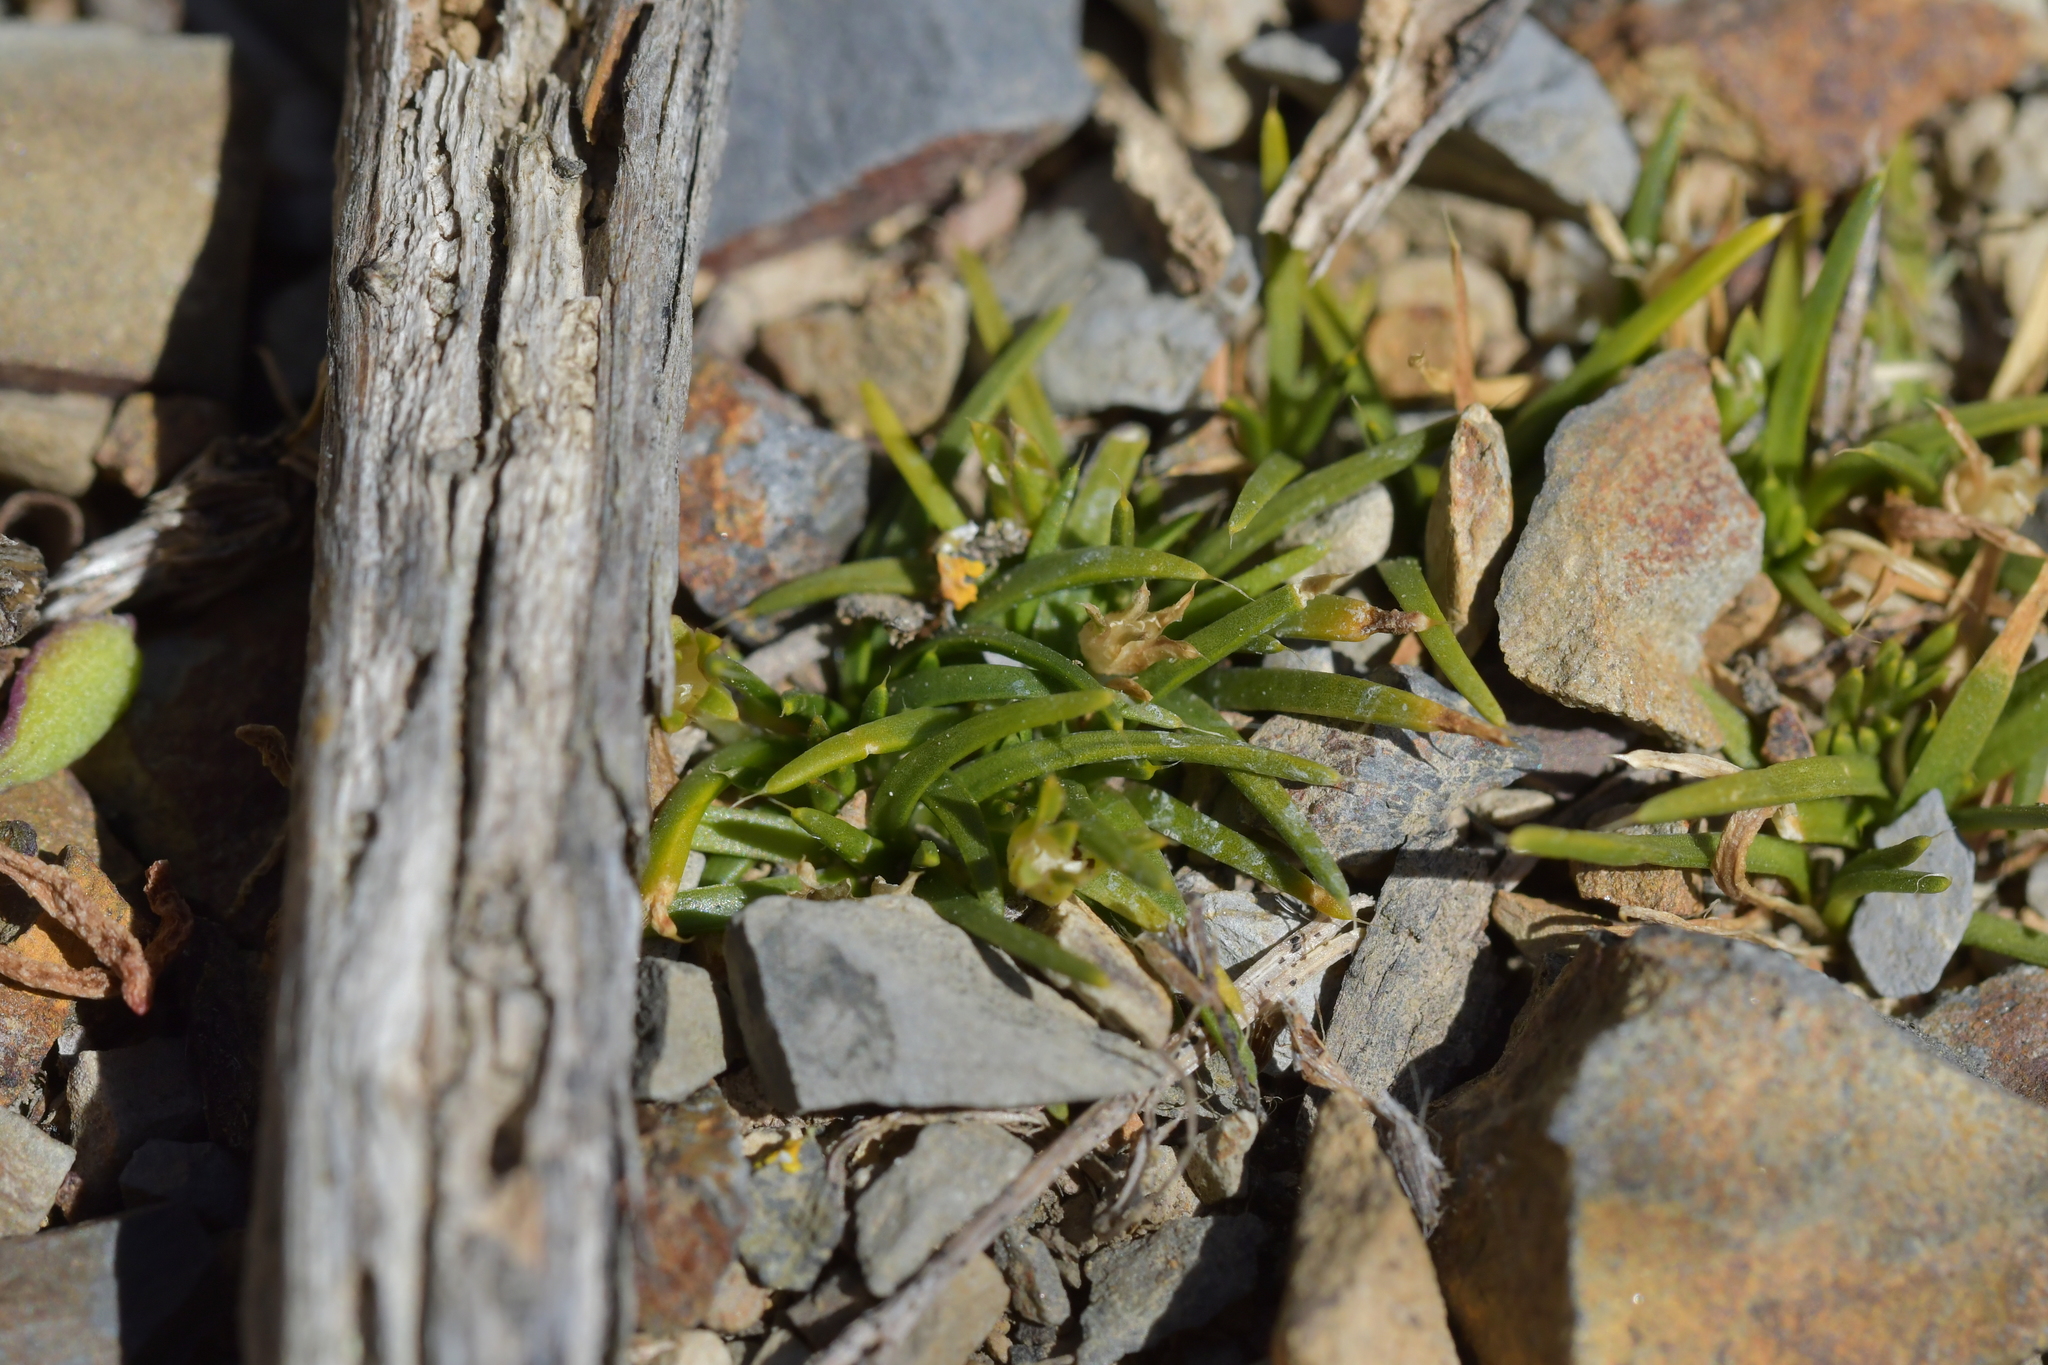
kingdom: Plantae
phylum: Tracheophyta
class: Magnoliopsida
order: Caryophyllales
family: Caryophyllaceae
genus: Colobanthus
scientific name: Colobanthus muelleri
